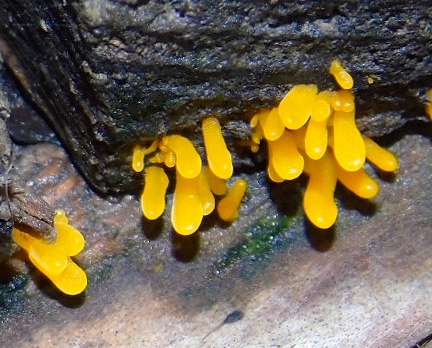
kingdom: Fungi
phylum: Basidiomycota
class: Dacrymycetes
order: Dacrymycetales
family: Dacrymycetaceae
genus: Dacrymyces
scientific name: Dacrymyces
